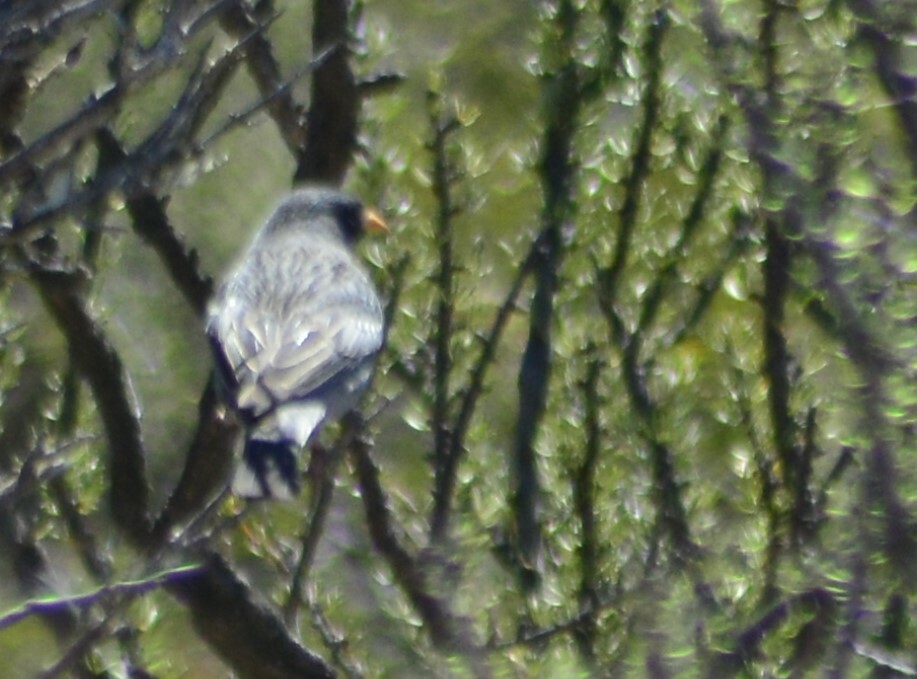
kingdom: Animalia
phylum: Chordata
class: Aves
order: Passeriformes
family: Thraupidae
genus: Rhopospina
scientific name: Rhopospina fruticeti
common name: Mourning sierra finch
